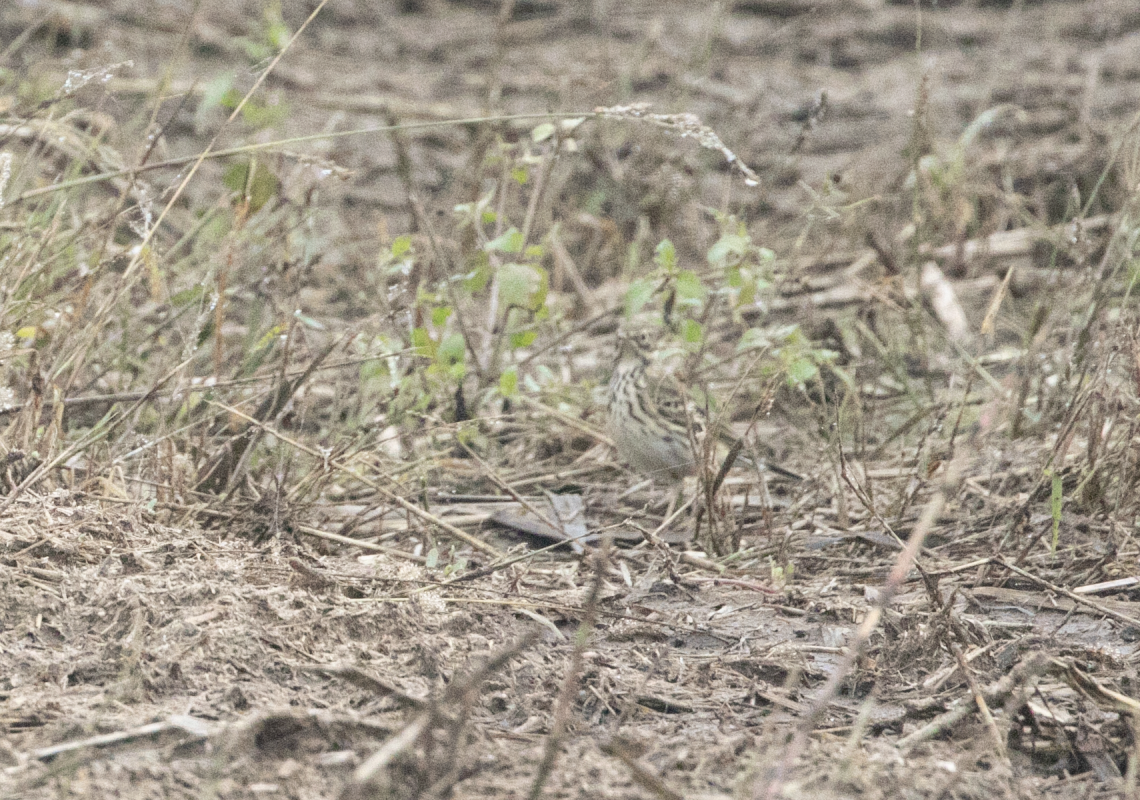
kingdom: Animalia
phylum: Chordata
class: Aves
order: Passeriformes
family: Motacillidae
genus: Anthus
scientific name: Anthus pratensis
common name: Meadow pipit
